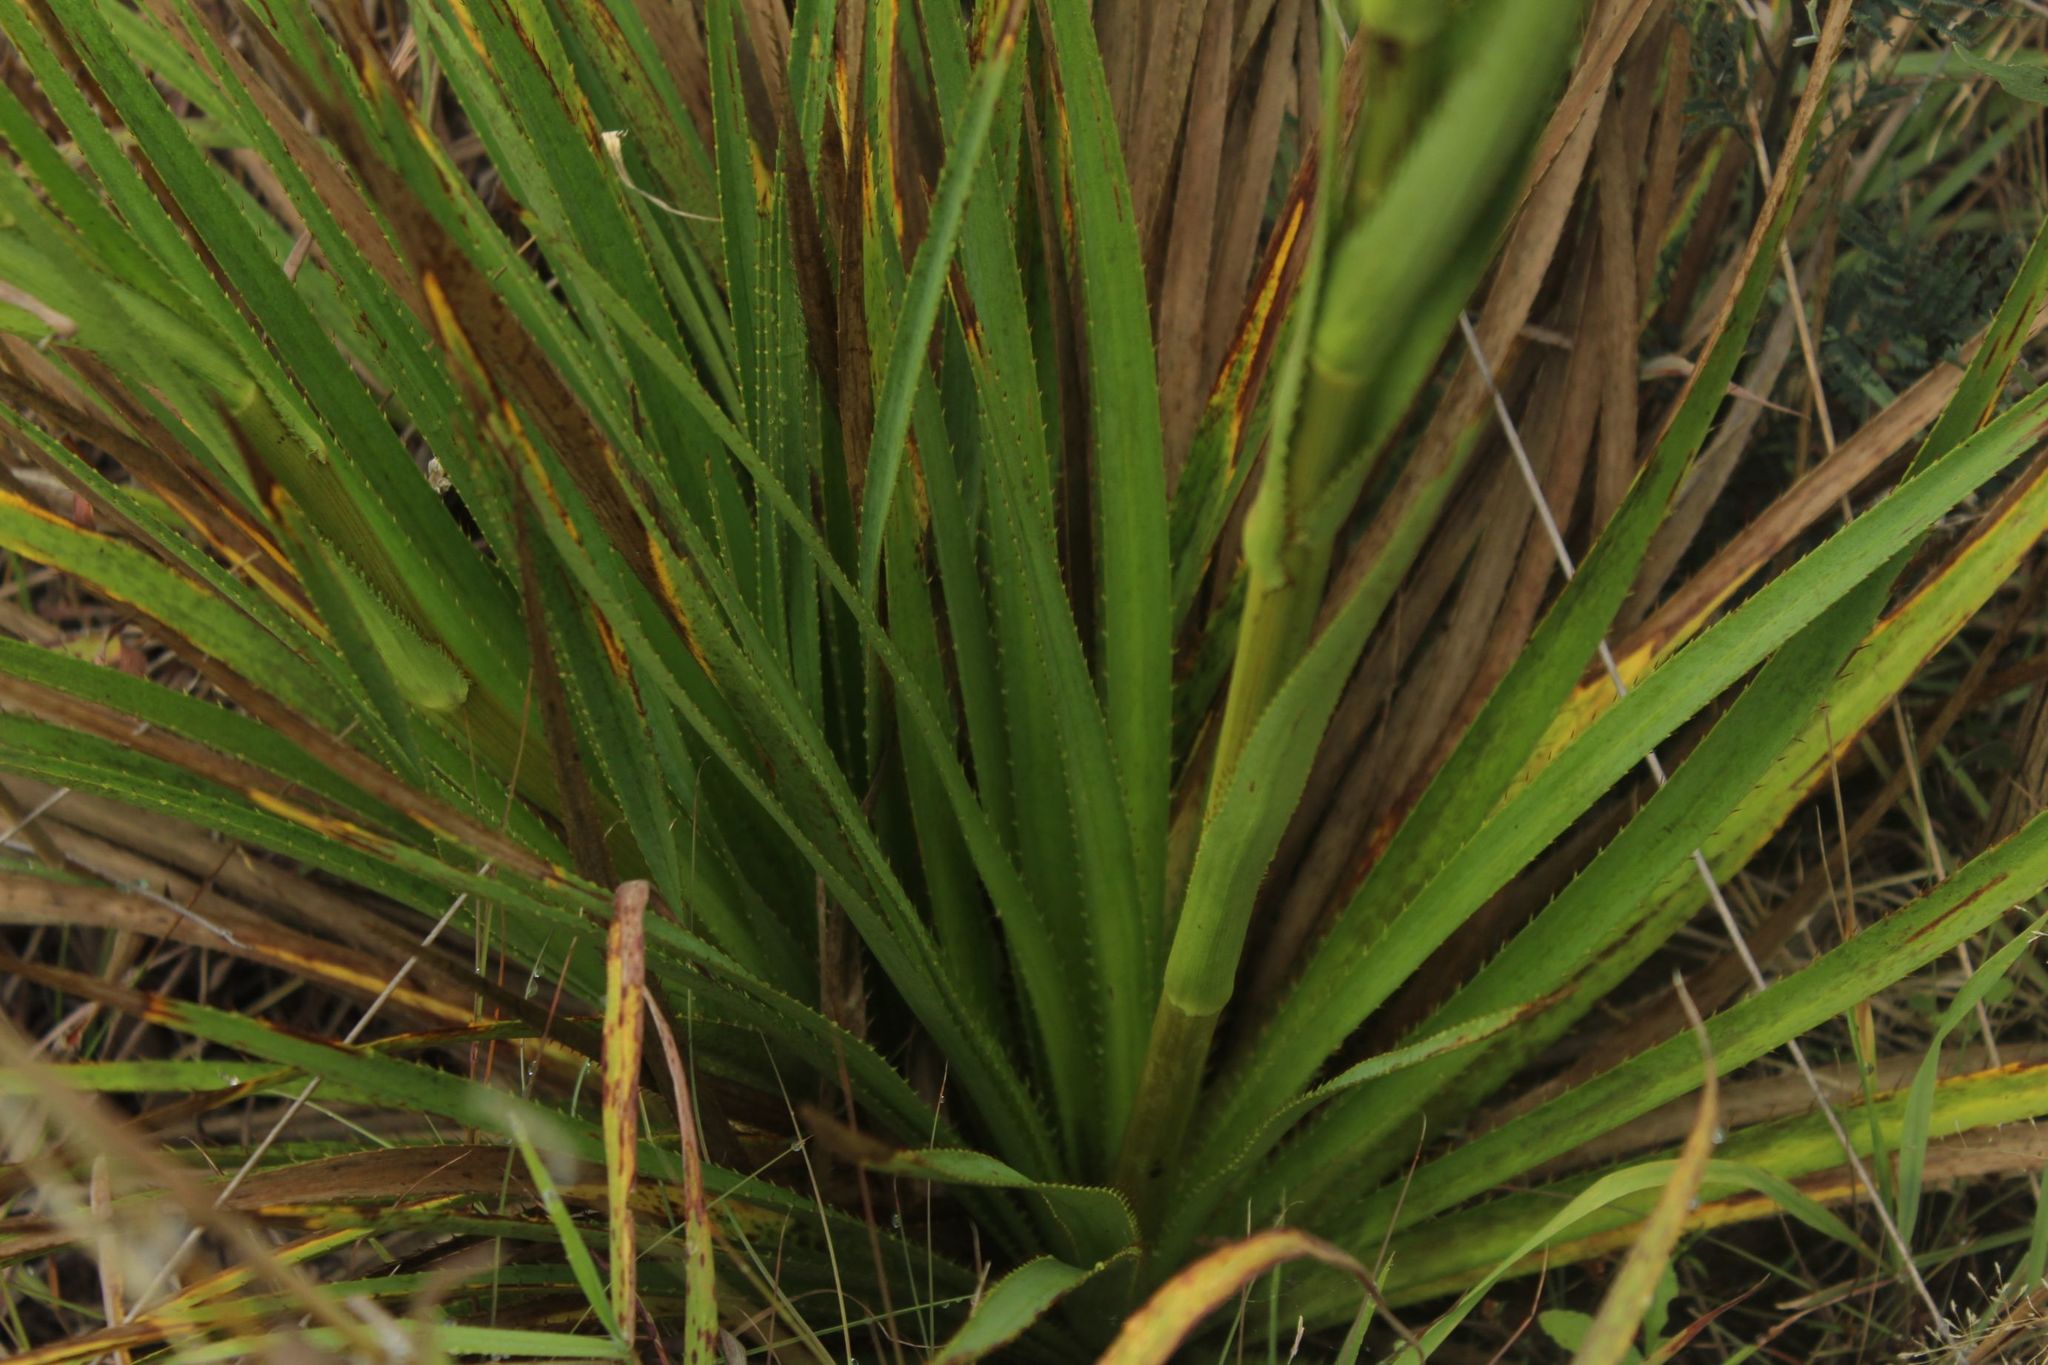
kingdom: Plantae
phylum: Tracheophyta
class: Magnoliopsida
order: Apiales
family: Apiaceae
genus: Eryngium
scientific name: Eryngium humboldtii
